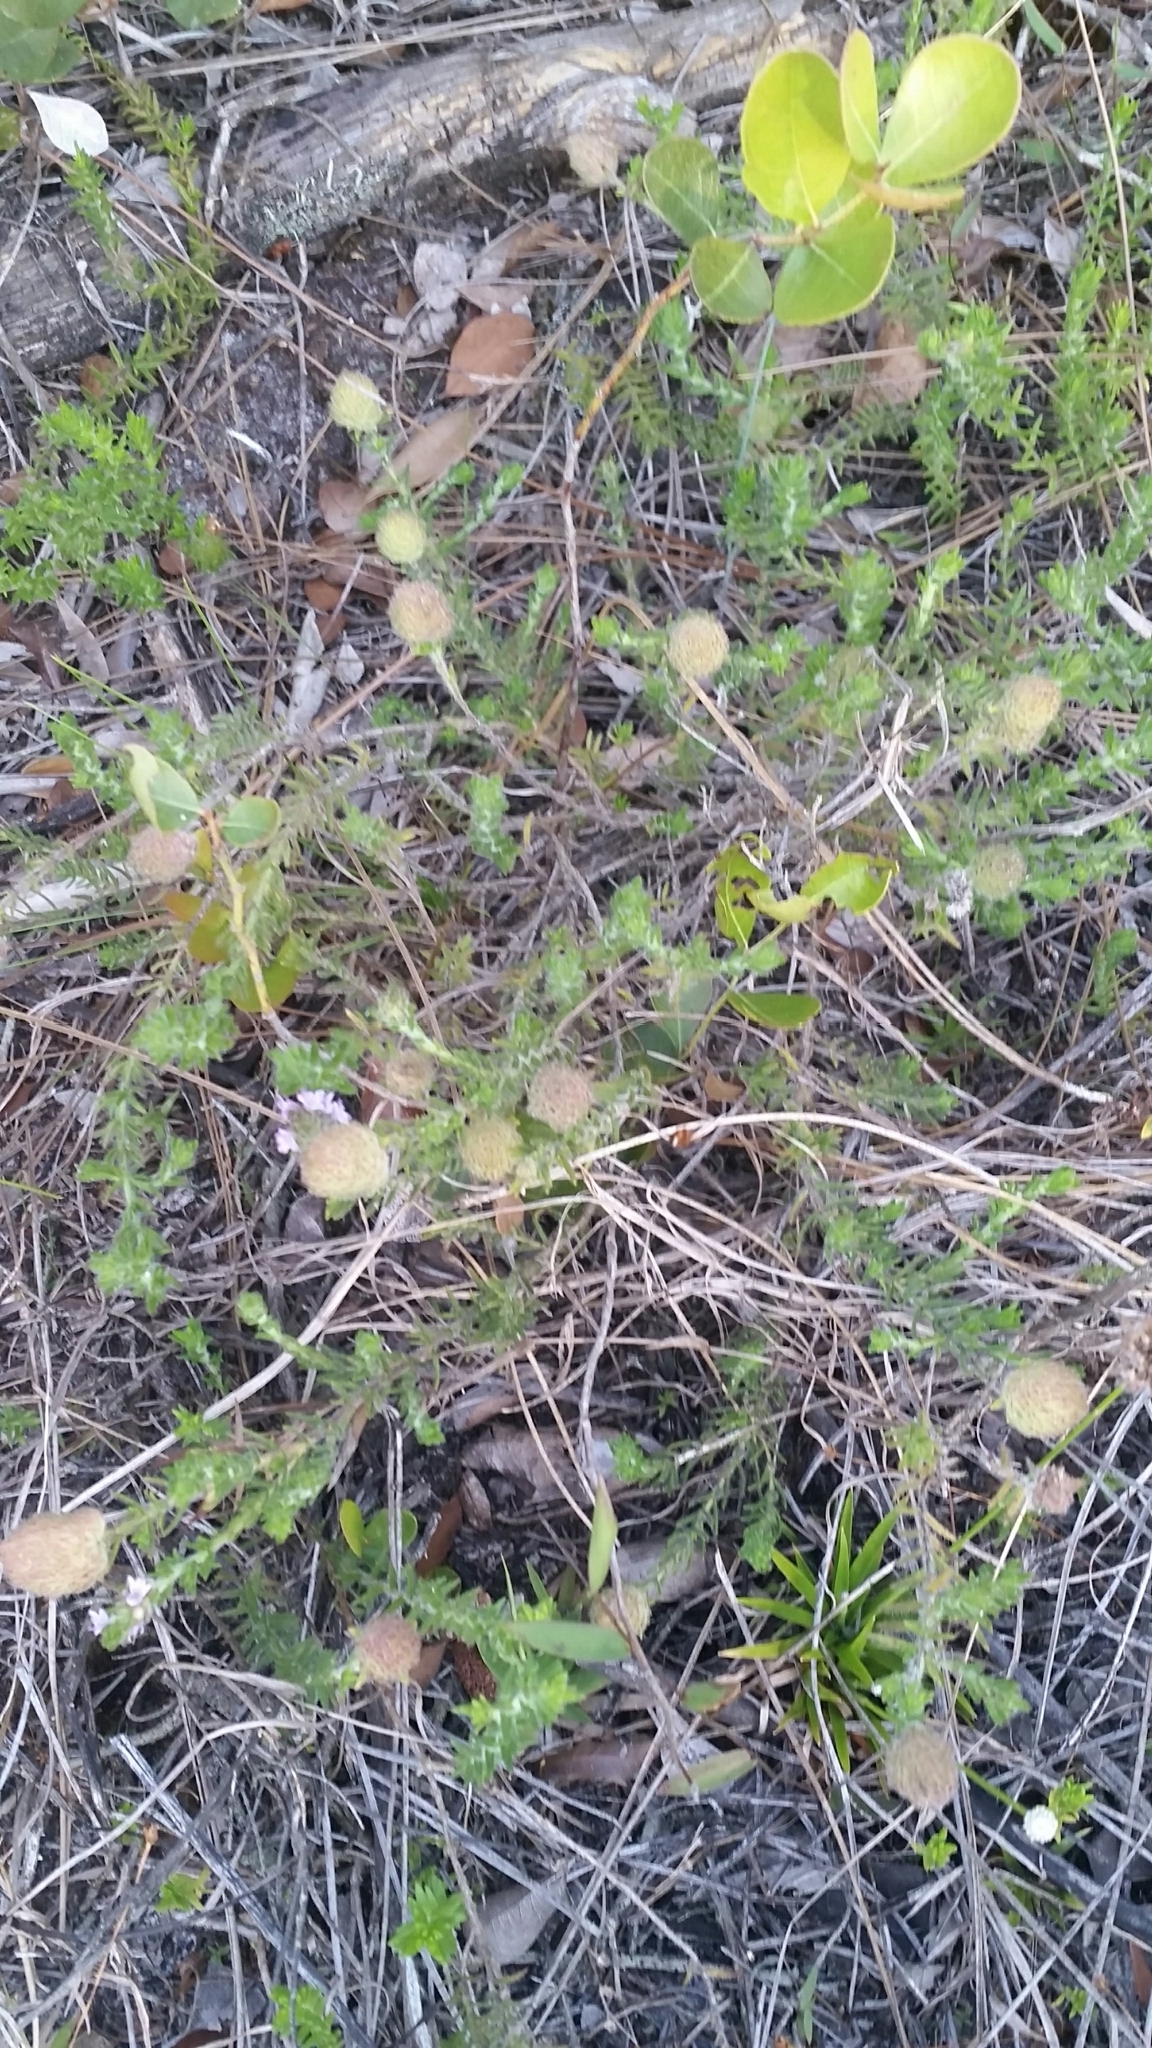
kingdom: Plantae
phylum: Tracheophyta
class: Magnoliopsida
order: Lamiales
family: Lamiaceae
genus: Piloblephis
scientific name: Piloblephis rigida
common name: Wild pennyroyal
